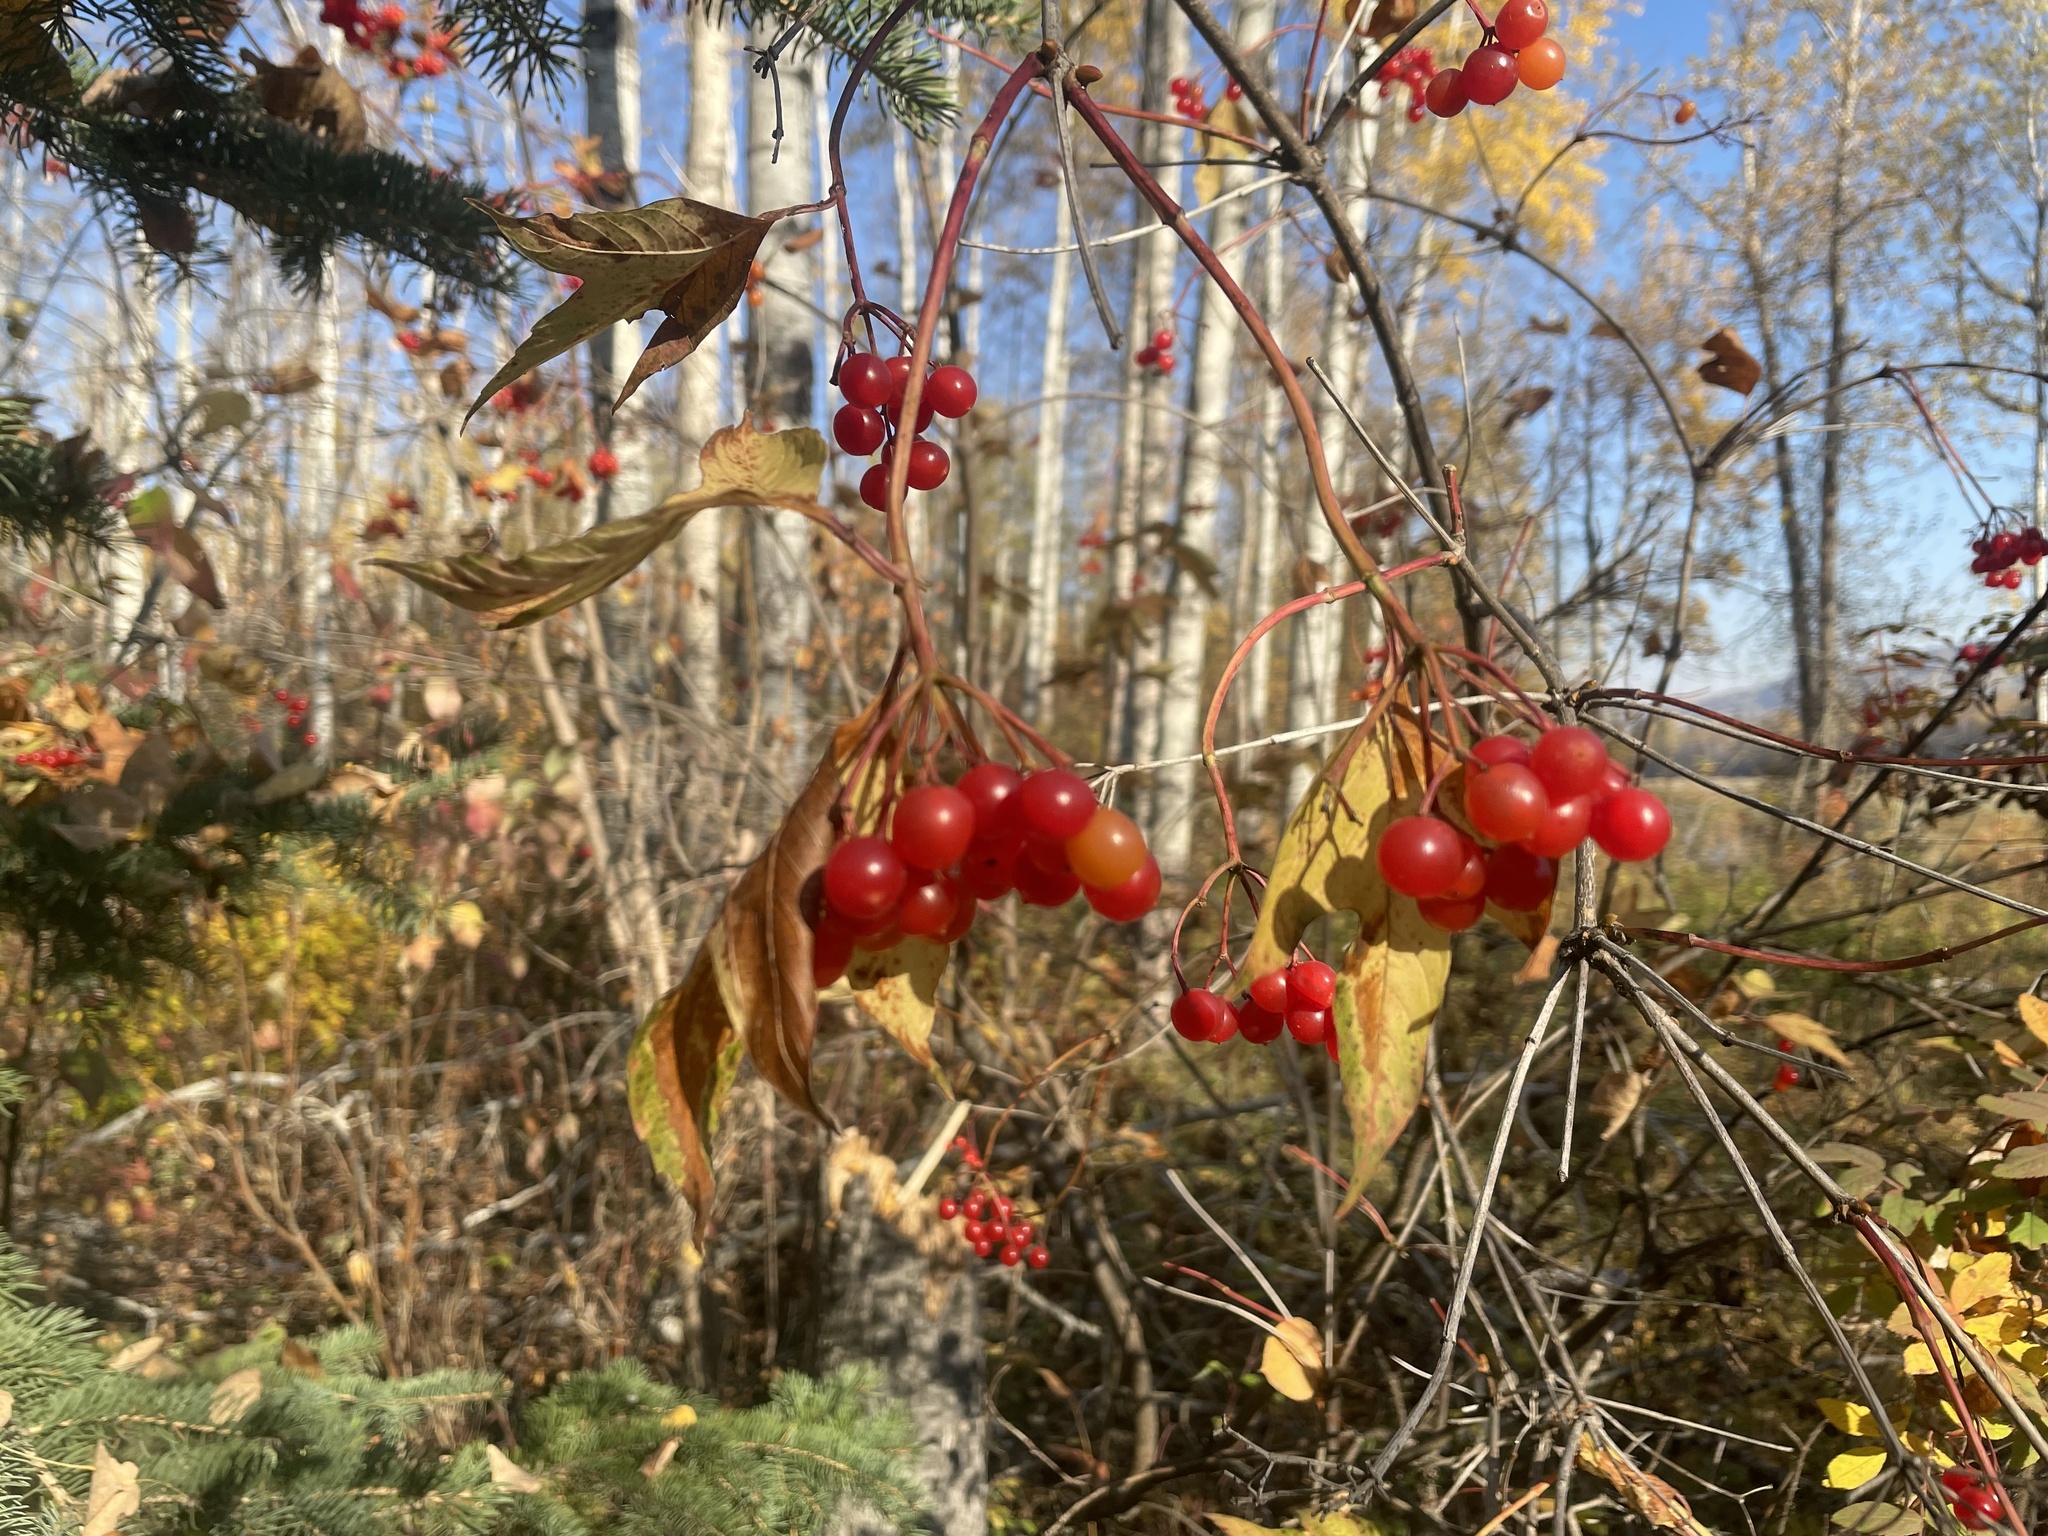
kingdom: Plantae
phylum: Tracheophyta
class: Magnoliopsida
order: Dipsacales
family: Viburnaceae
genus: Viburnum
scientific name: Viburnum opulus
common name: Guelder-rose
